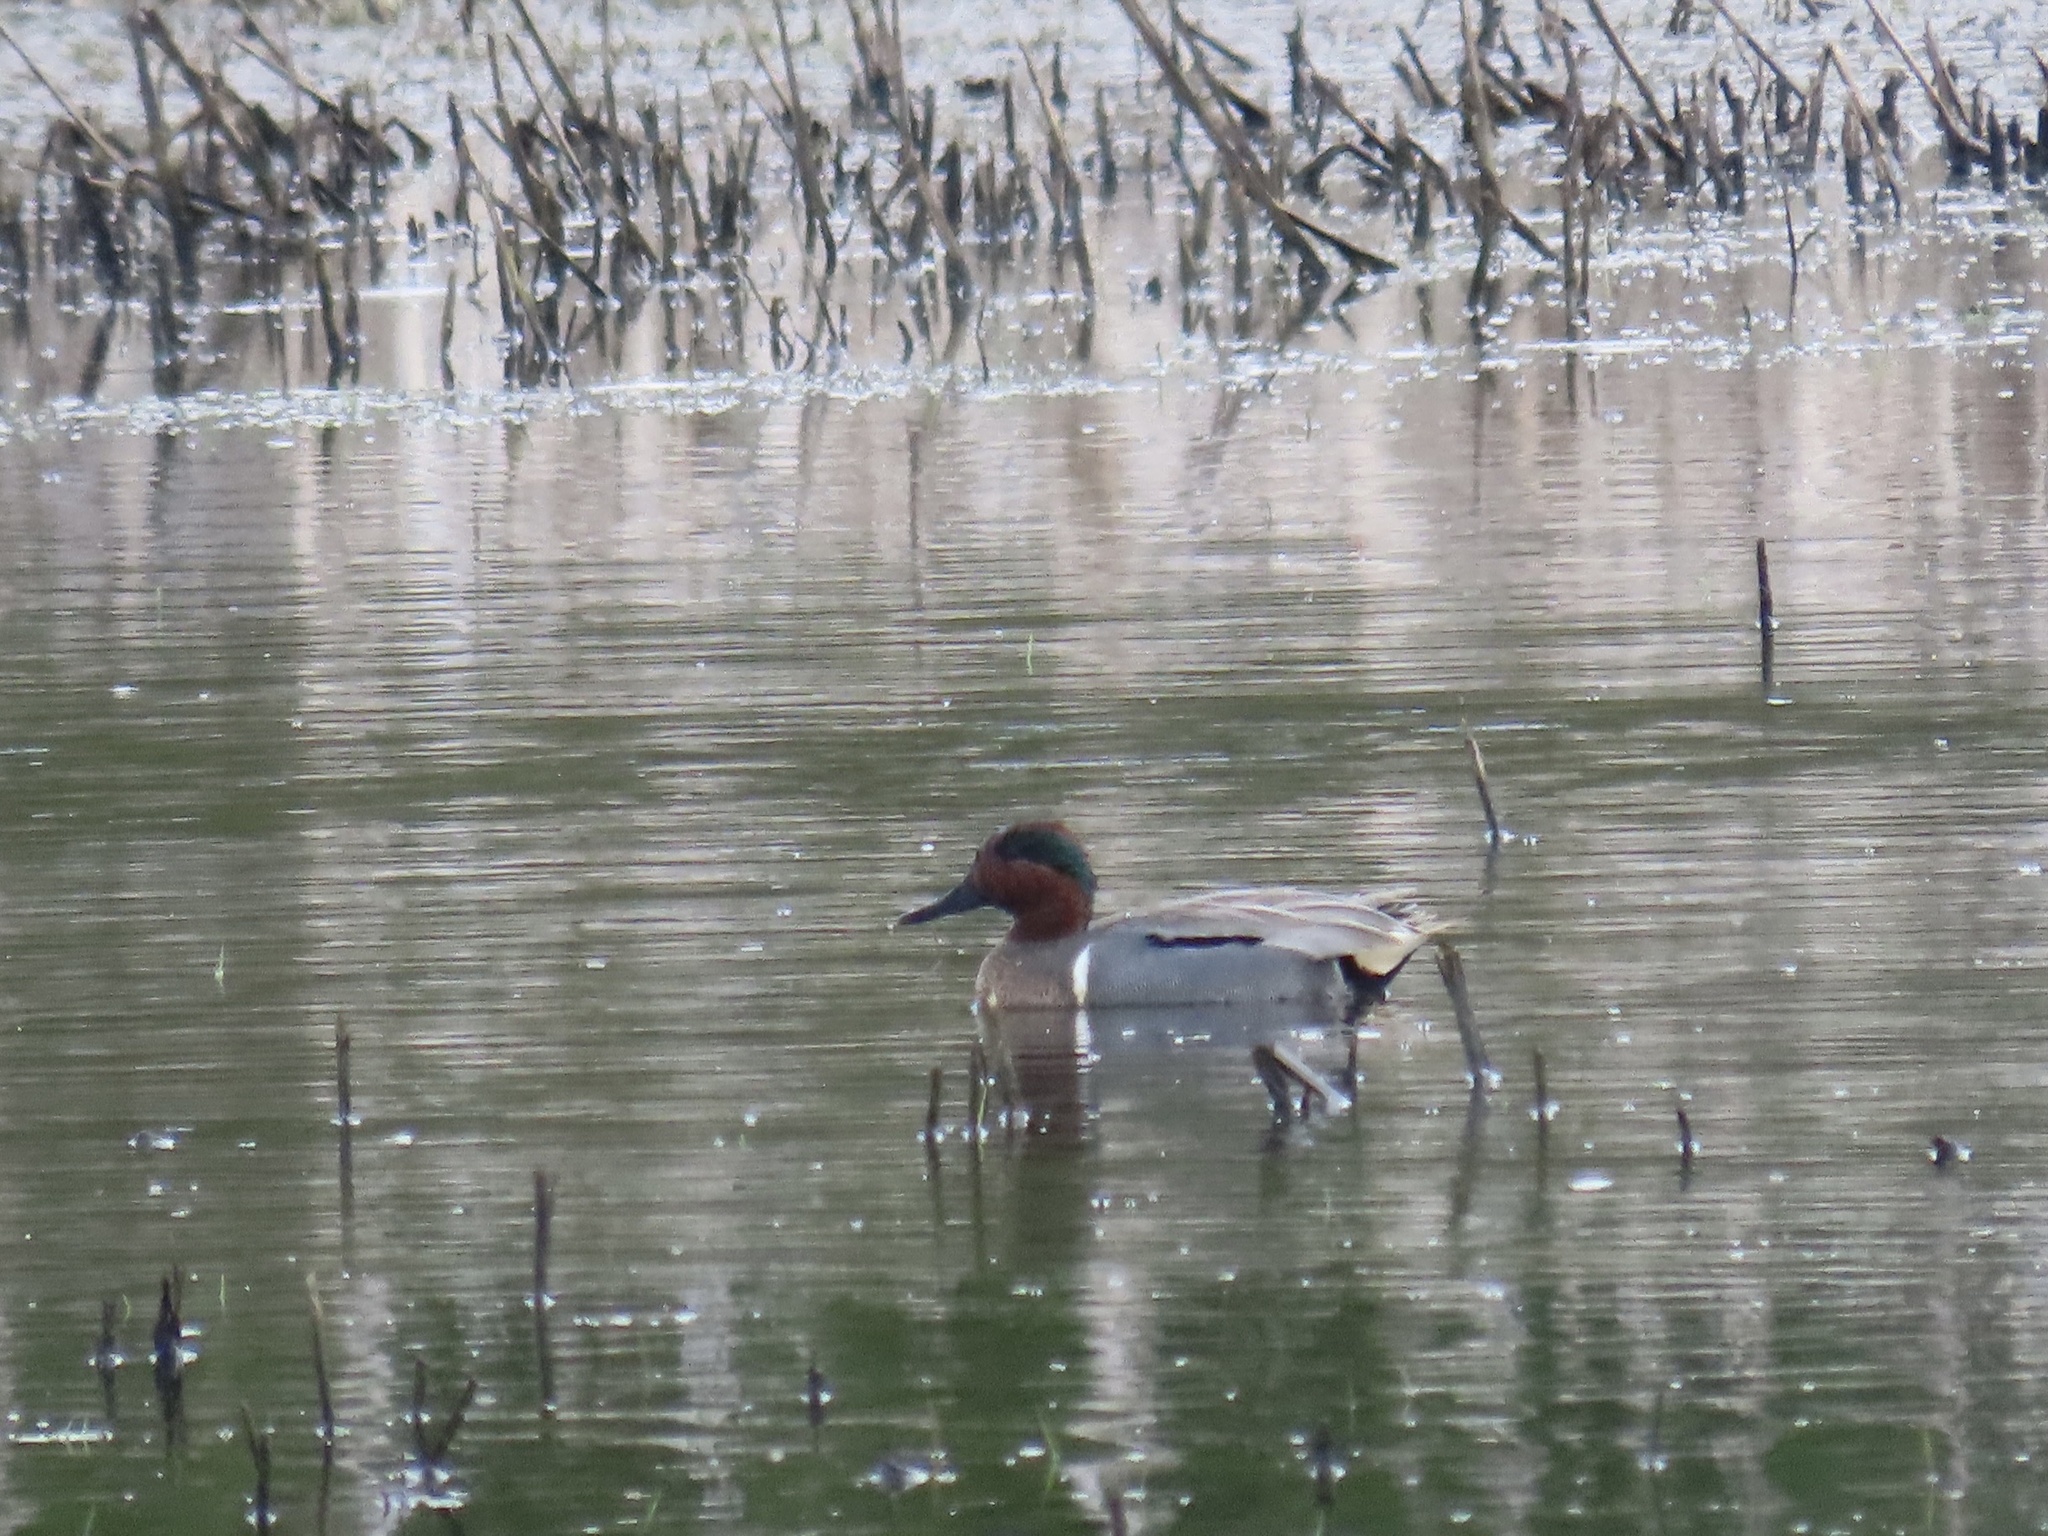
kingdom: Animalia
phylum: Chordata
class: Aves
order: Anseriformes
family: Anatidae
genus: Anas
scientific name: Anas crecca
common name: Eurasian teal
